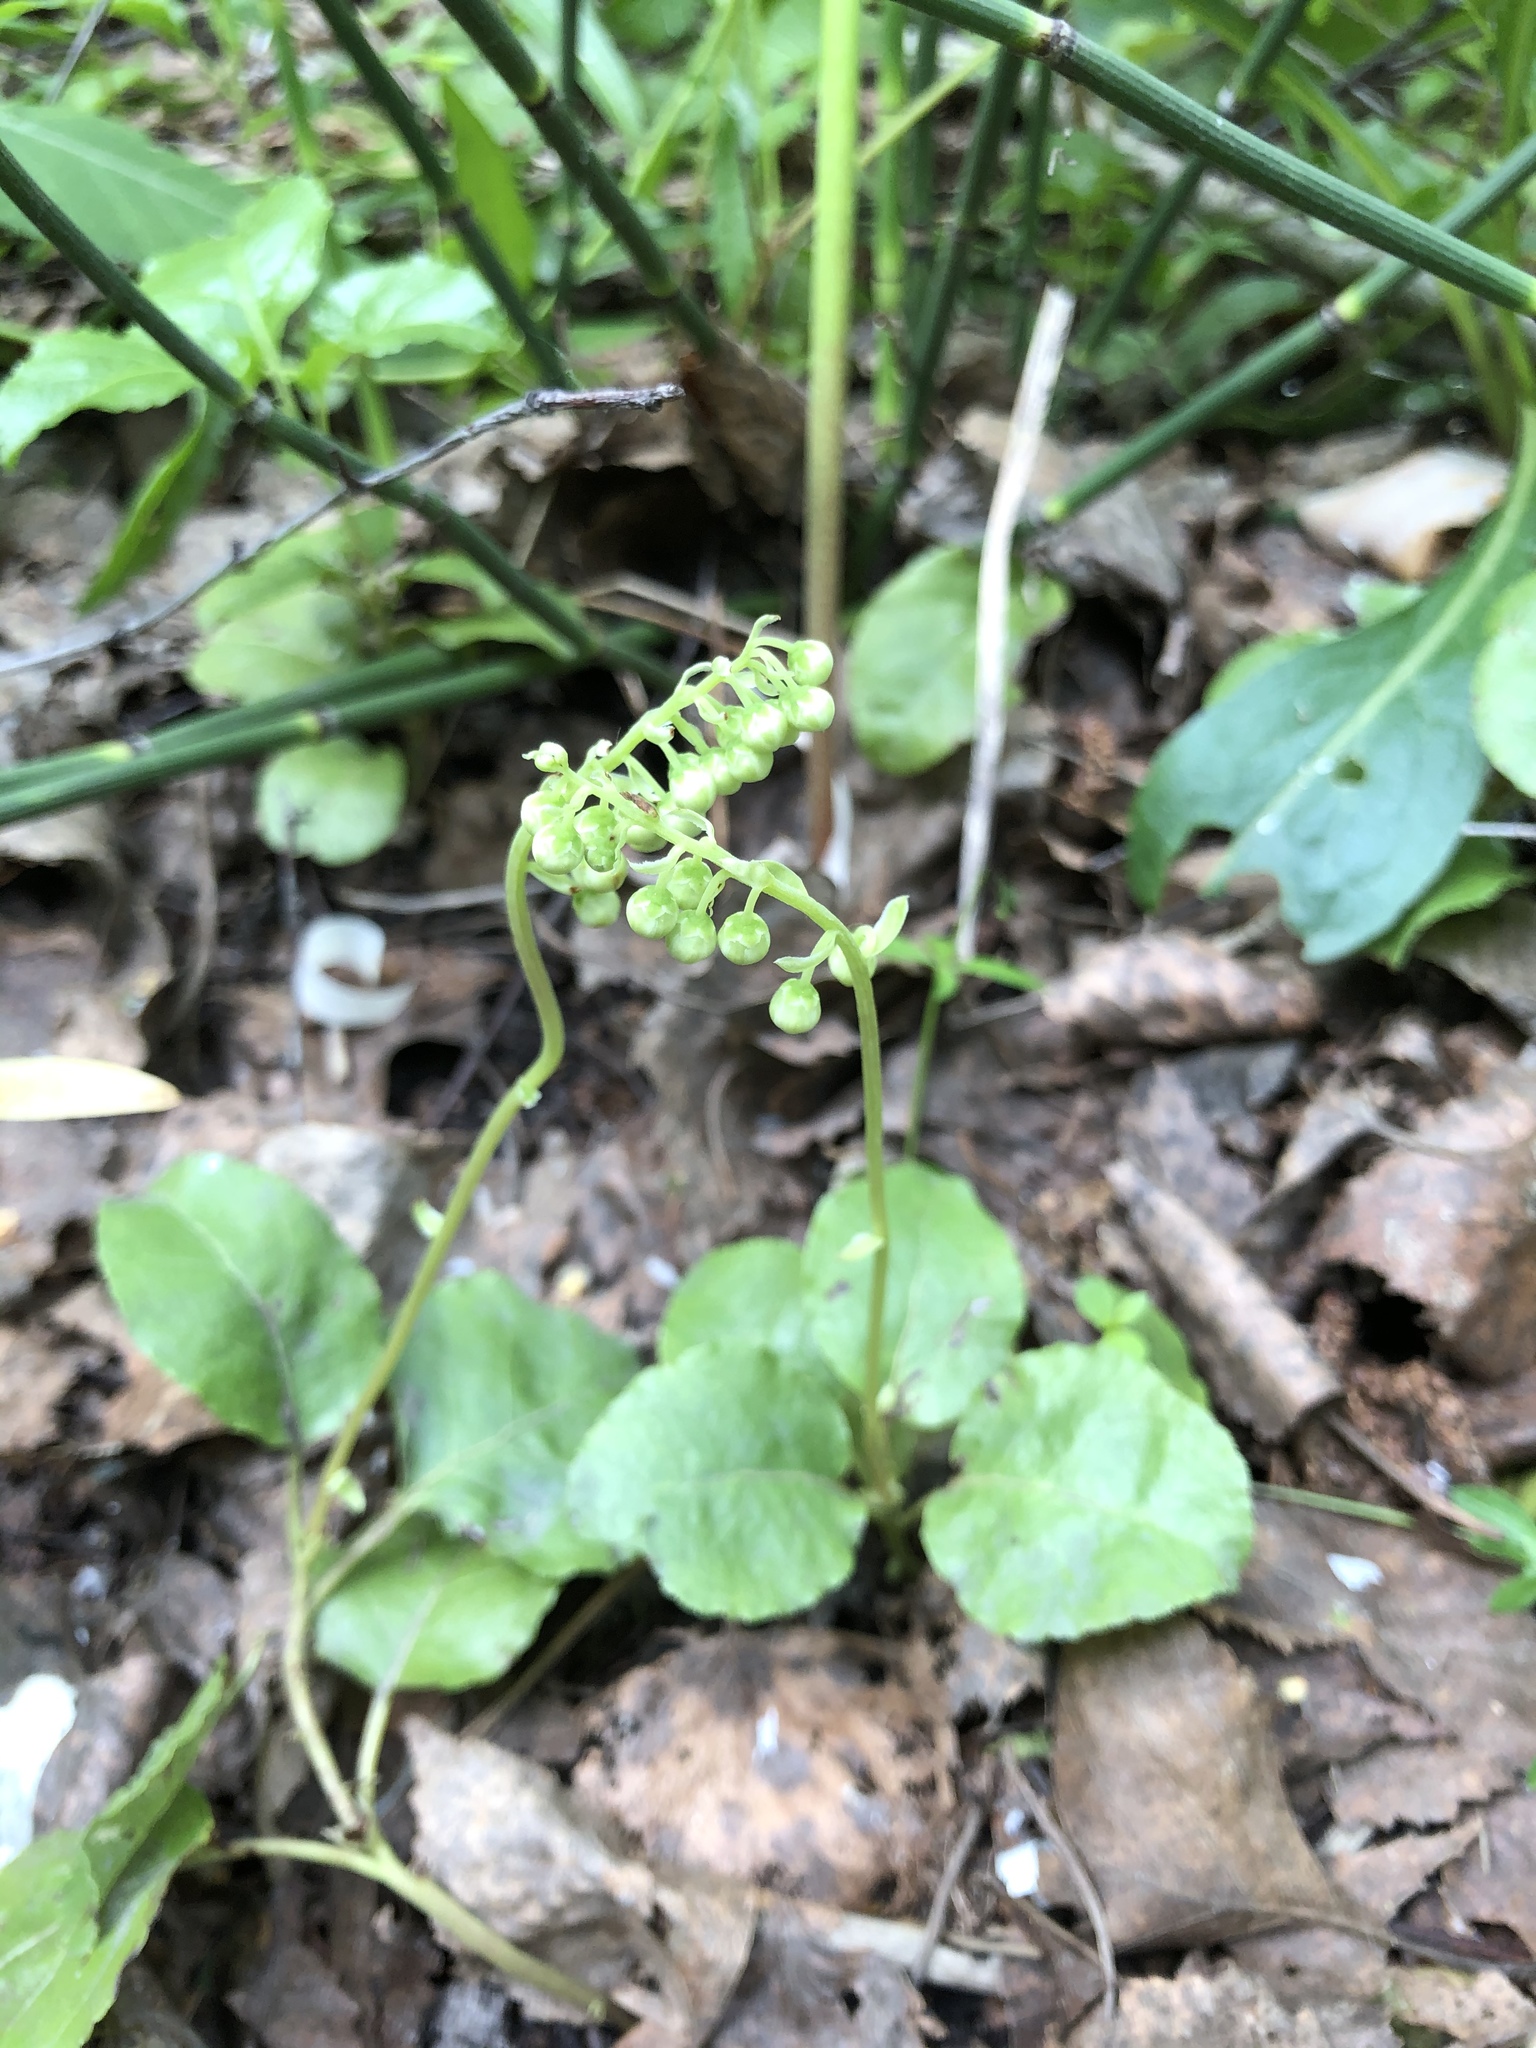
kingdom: Plantae
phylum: Tracheophyta
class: Magnoliopsida
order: Ericales
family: Ericaceae
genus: Orthilia
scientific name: Orthilia secunda
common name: One-sided orthilia
